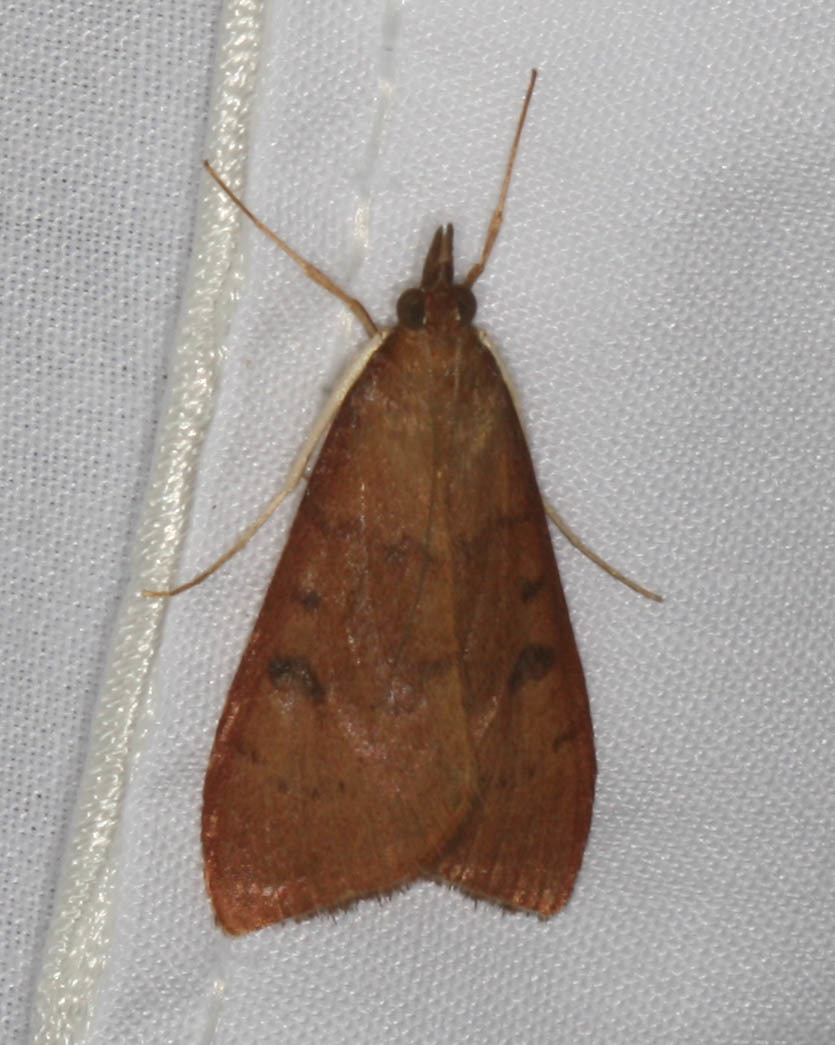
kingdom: Animalia
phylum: Arthropoda
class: Insecta
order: Lepidoptera
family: Crambidae
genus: Uresiphita
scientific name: Uresiphita reversalis
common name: Genista broom moth
